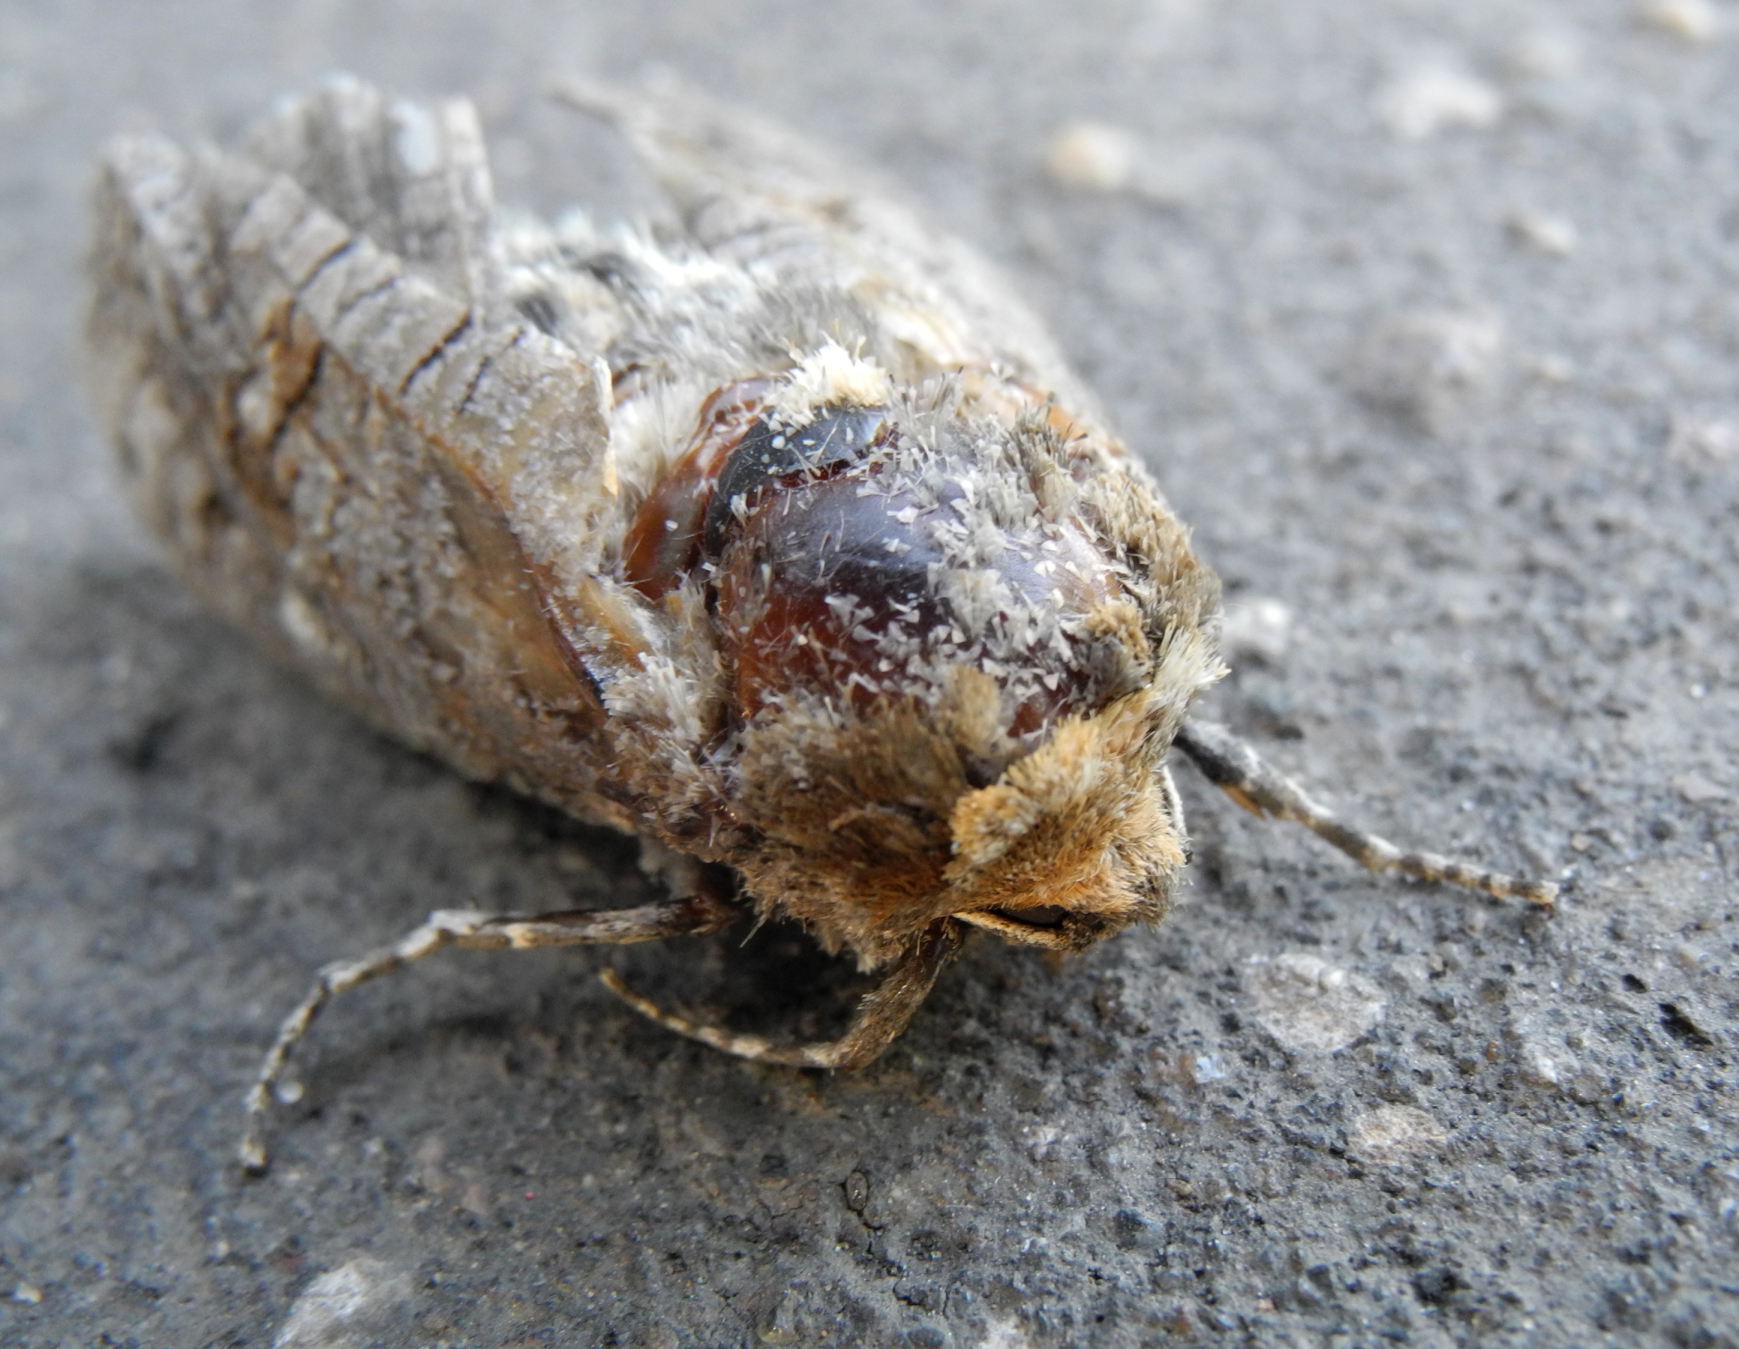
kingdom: Animalia
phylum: Arthropoda
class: Insecta
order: Lepidoptera
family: Cossidae
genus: Cossus
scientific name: Cossus cossus
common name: Goat moth
